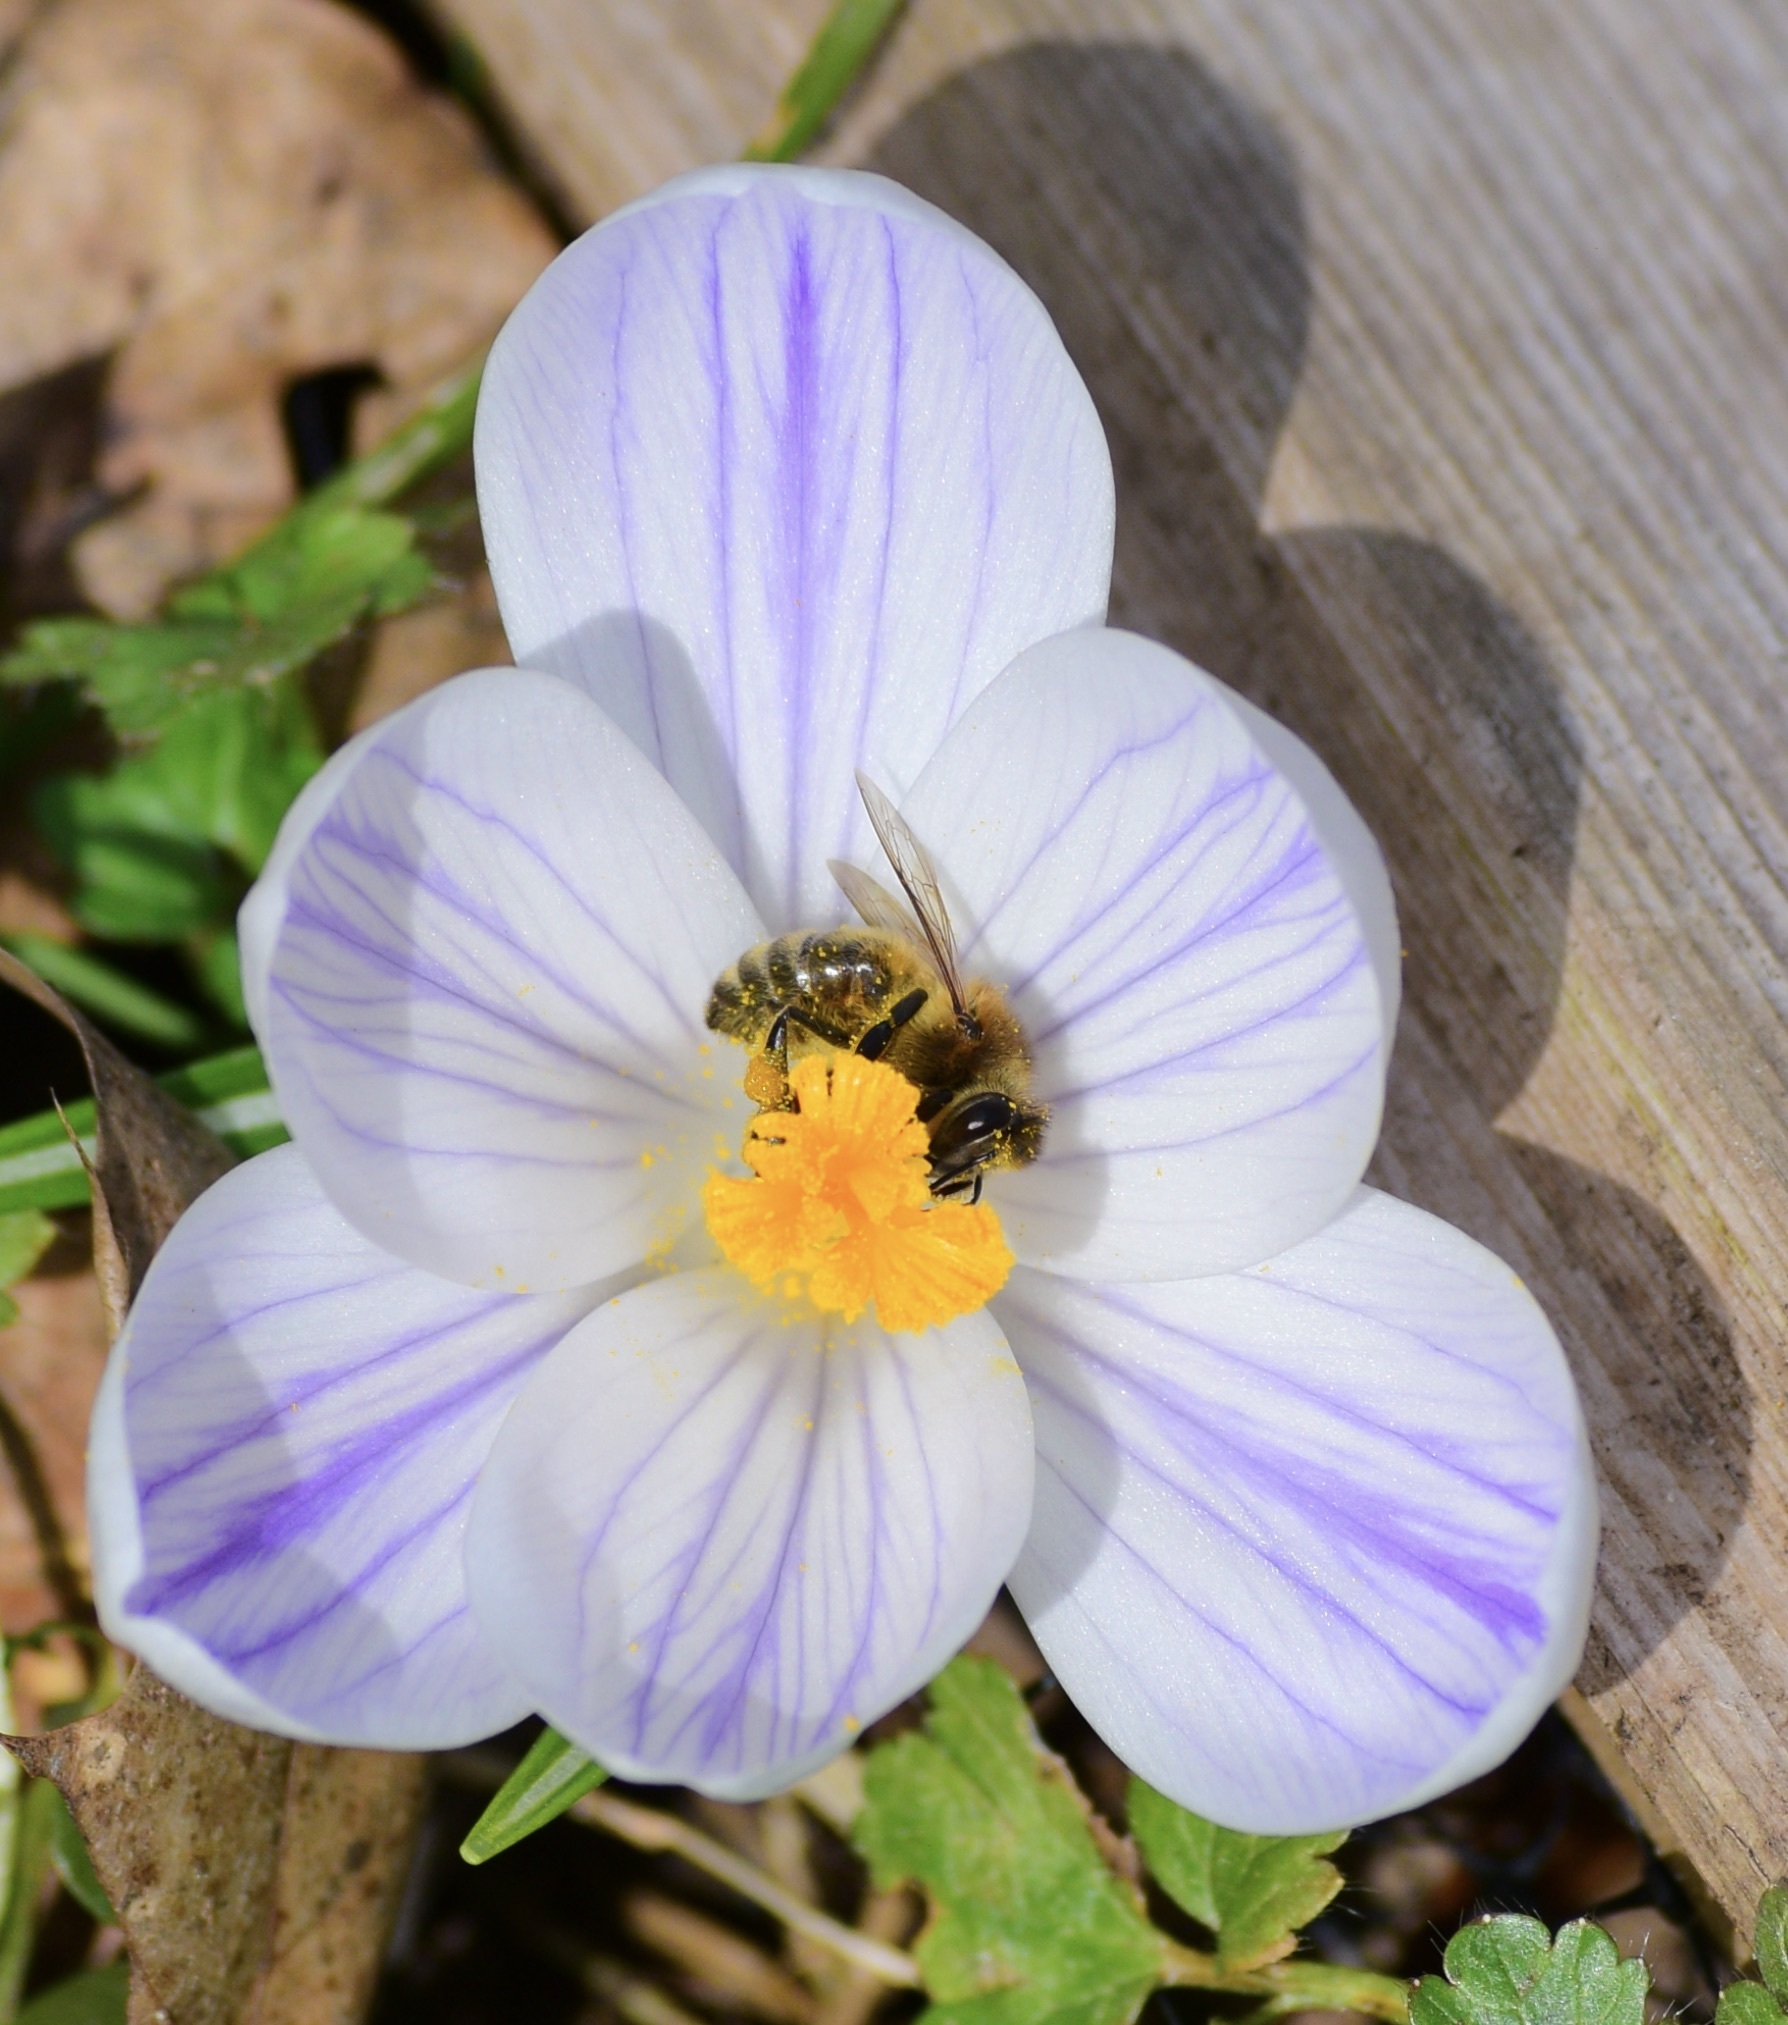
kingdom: Animalia
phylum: Arthropoda
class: Insecta
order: Hymenoptera
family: Apidae
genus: Apis
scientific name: Apis mellifera
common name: Honey bee
